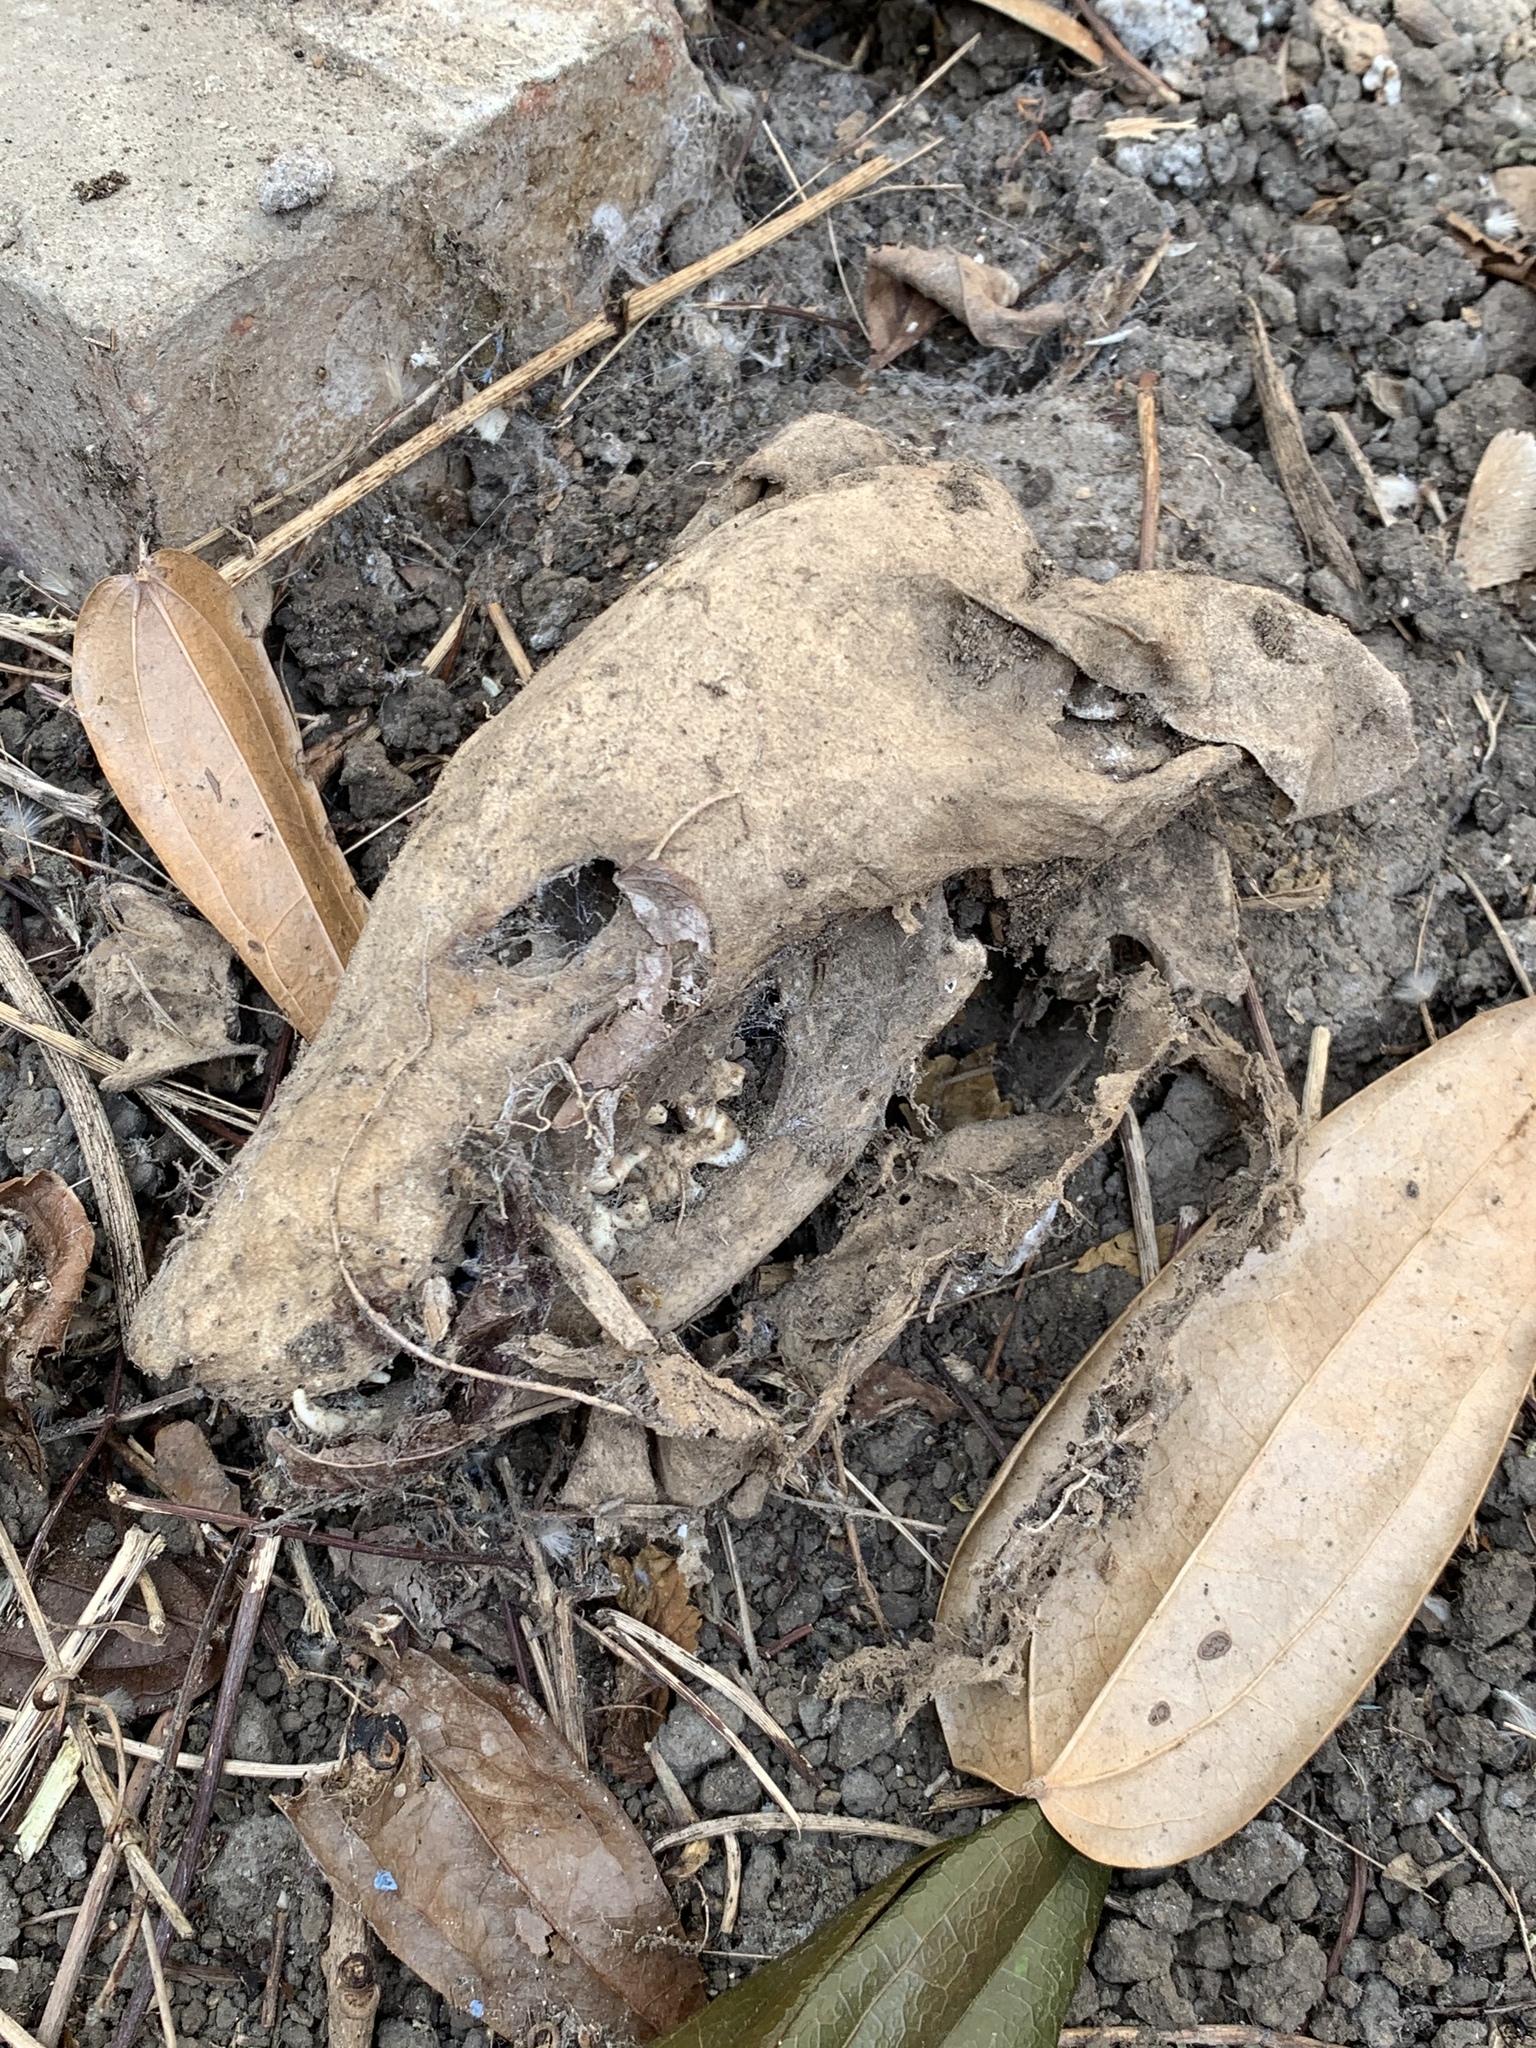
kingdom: Animalia
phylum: Chordata
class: Mammalia
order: Carnivora
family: Canidae
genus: Vulpes
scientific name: Vulpes vulpes
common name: Red fox
